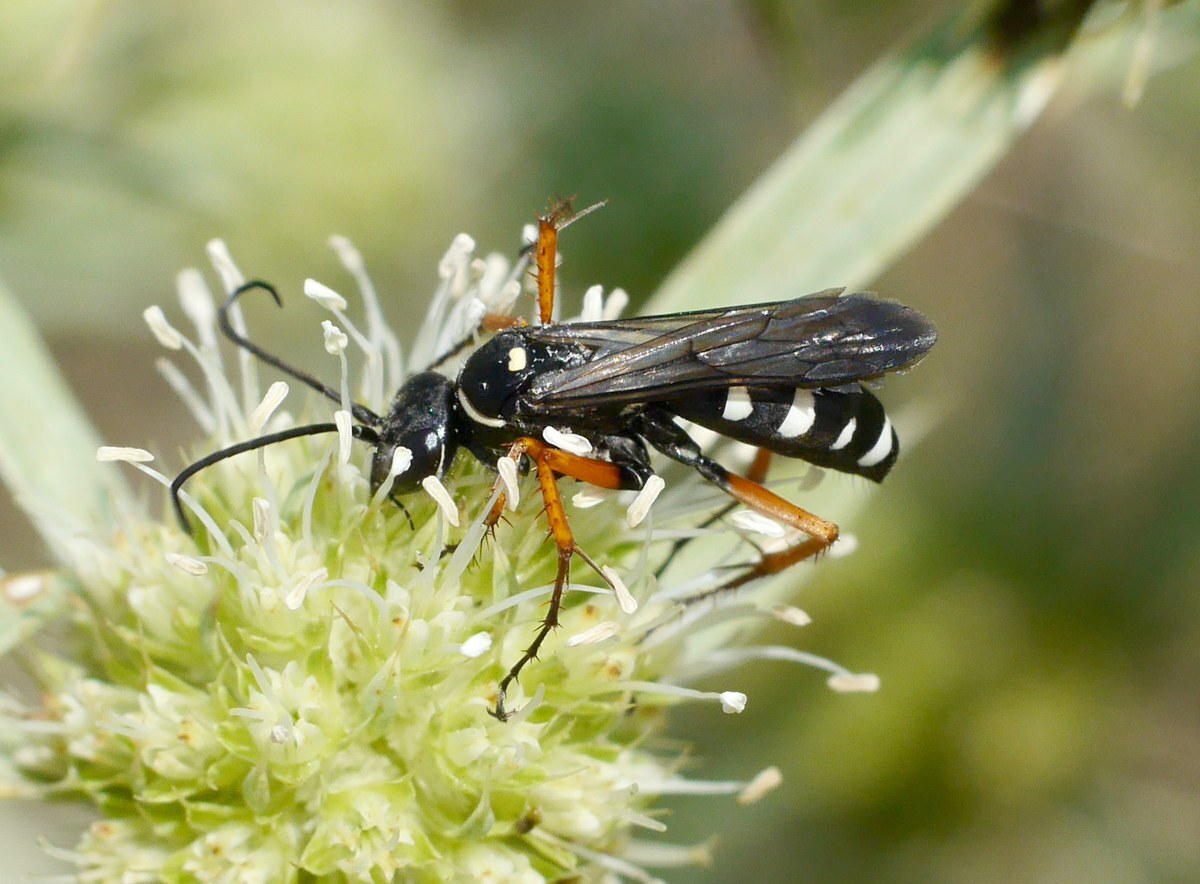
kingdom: Animalia
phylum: Arthropoda
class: Insecta
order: Hymenoptera
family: Pompilidae
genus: Episyron
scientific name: Episyron albonotatum
